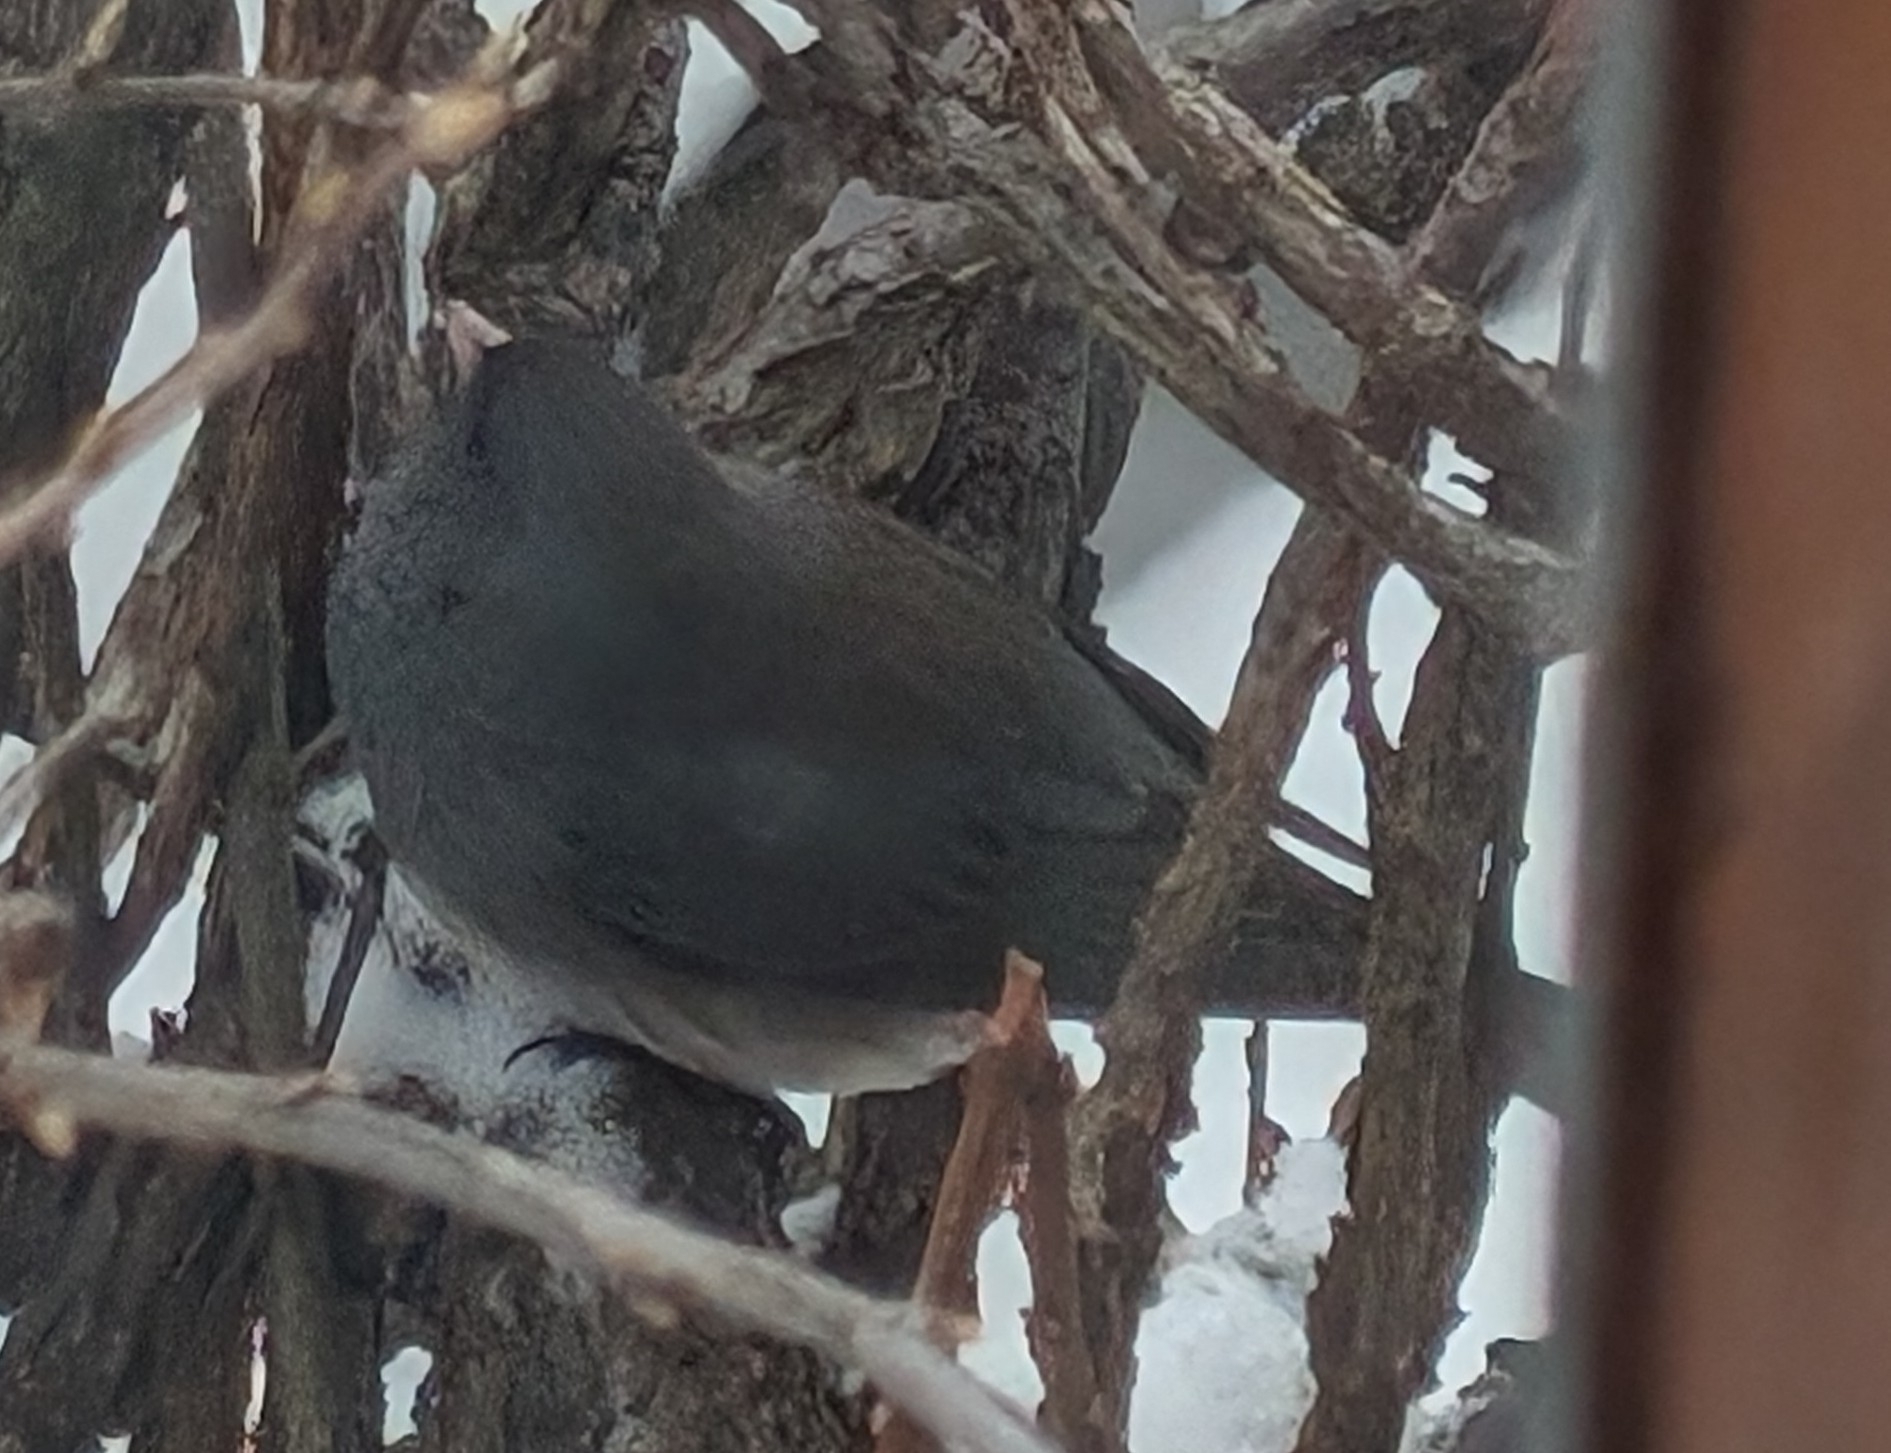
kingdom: Animalia
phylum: Chordata
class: Aves
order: Passeriformes
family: Passerellidae
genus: Junco
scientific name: Junco hyemalis
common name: Dark-eyed junco
